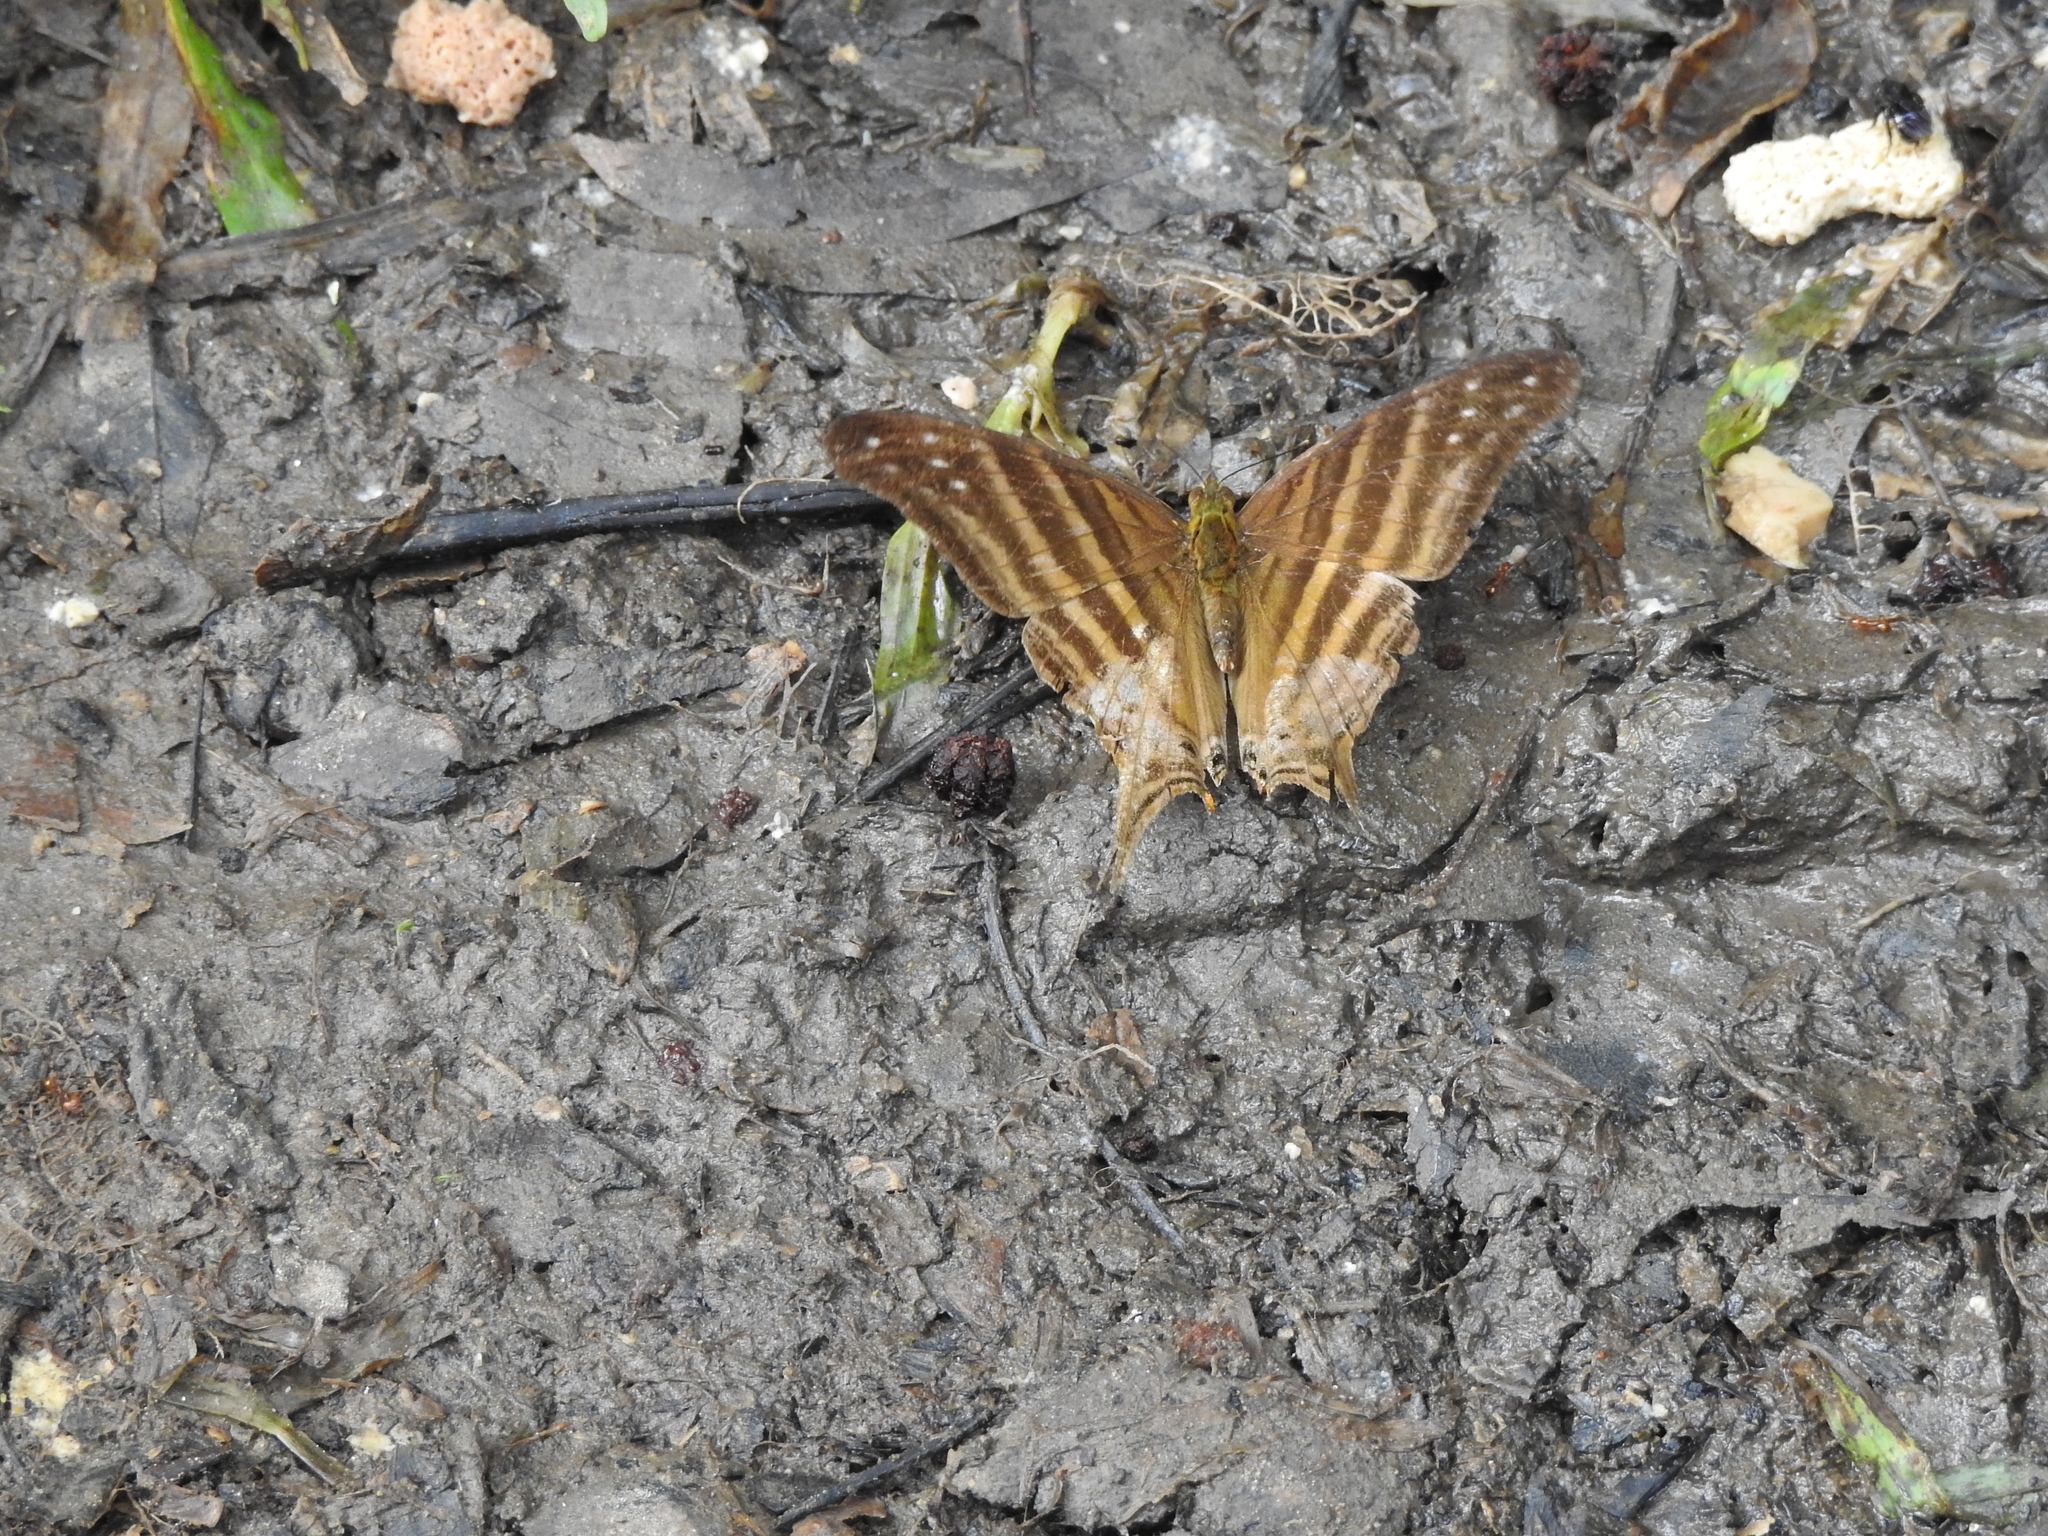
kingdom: Animalia
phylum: Arthropoda
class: Insecta
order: Lepidoptera
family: Nymphalidae
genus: Marpesia
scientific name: Marpesia chiron
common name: Many-banded daggerwing
